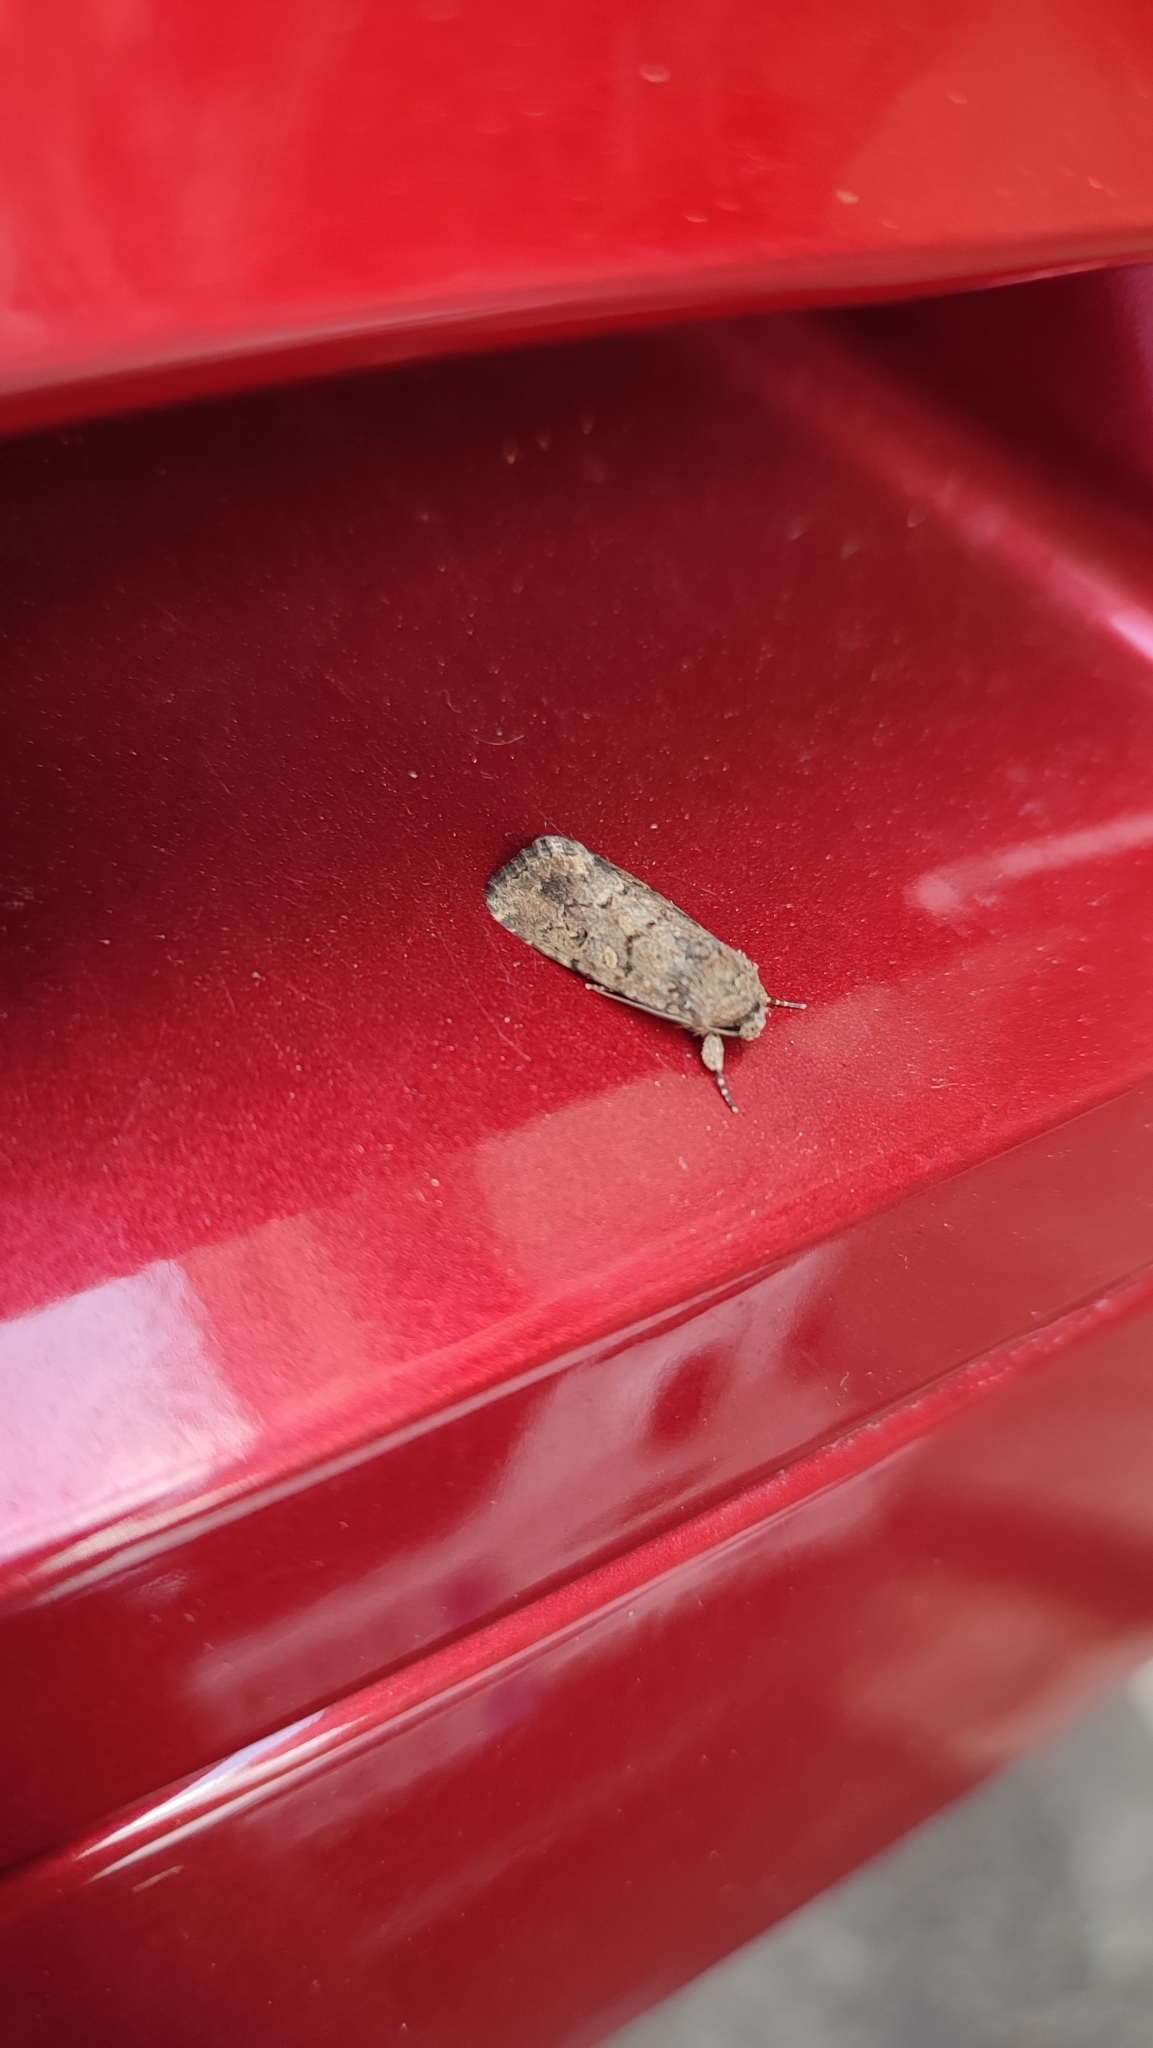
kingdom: Animalia
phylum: Arthropoda
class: Insecta
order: Lepidoptera
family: Noctuidae
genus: Spodoptera
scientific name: Spodoptera cilium
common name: Dark mottled willow
